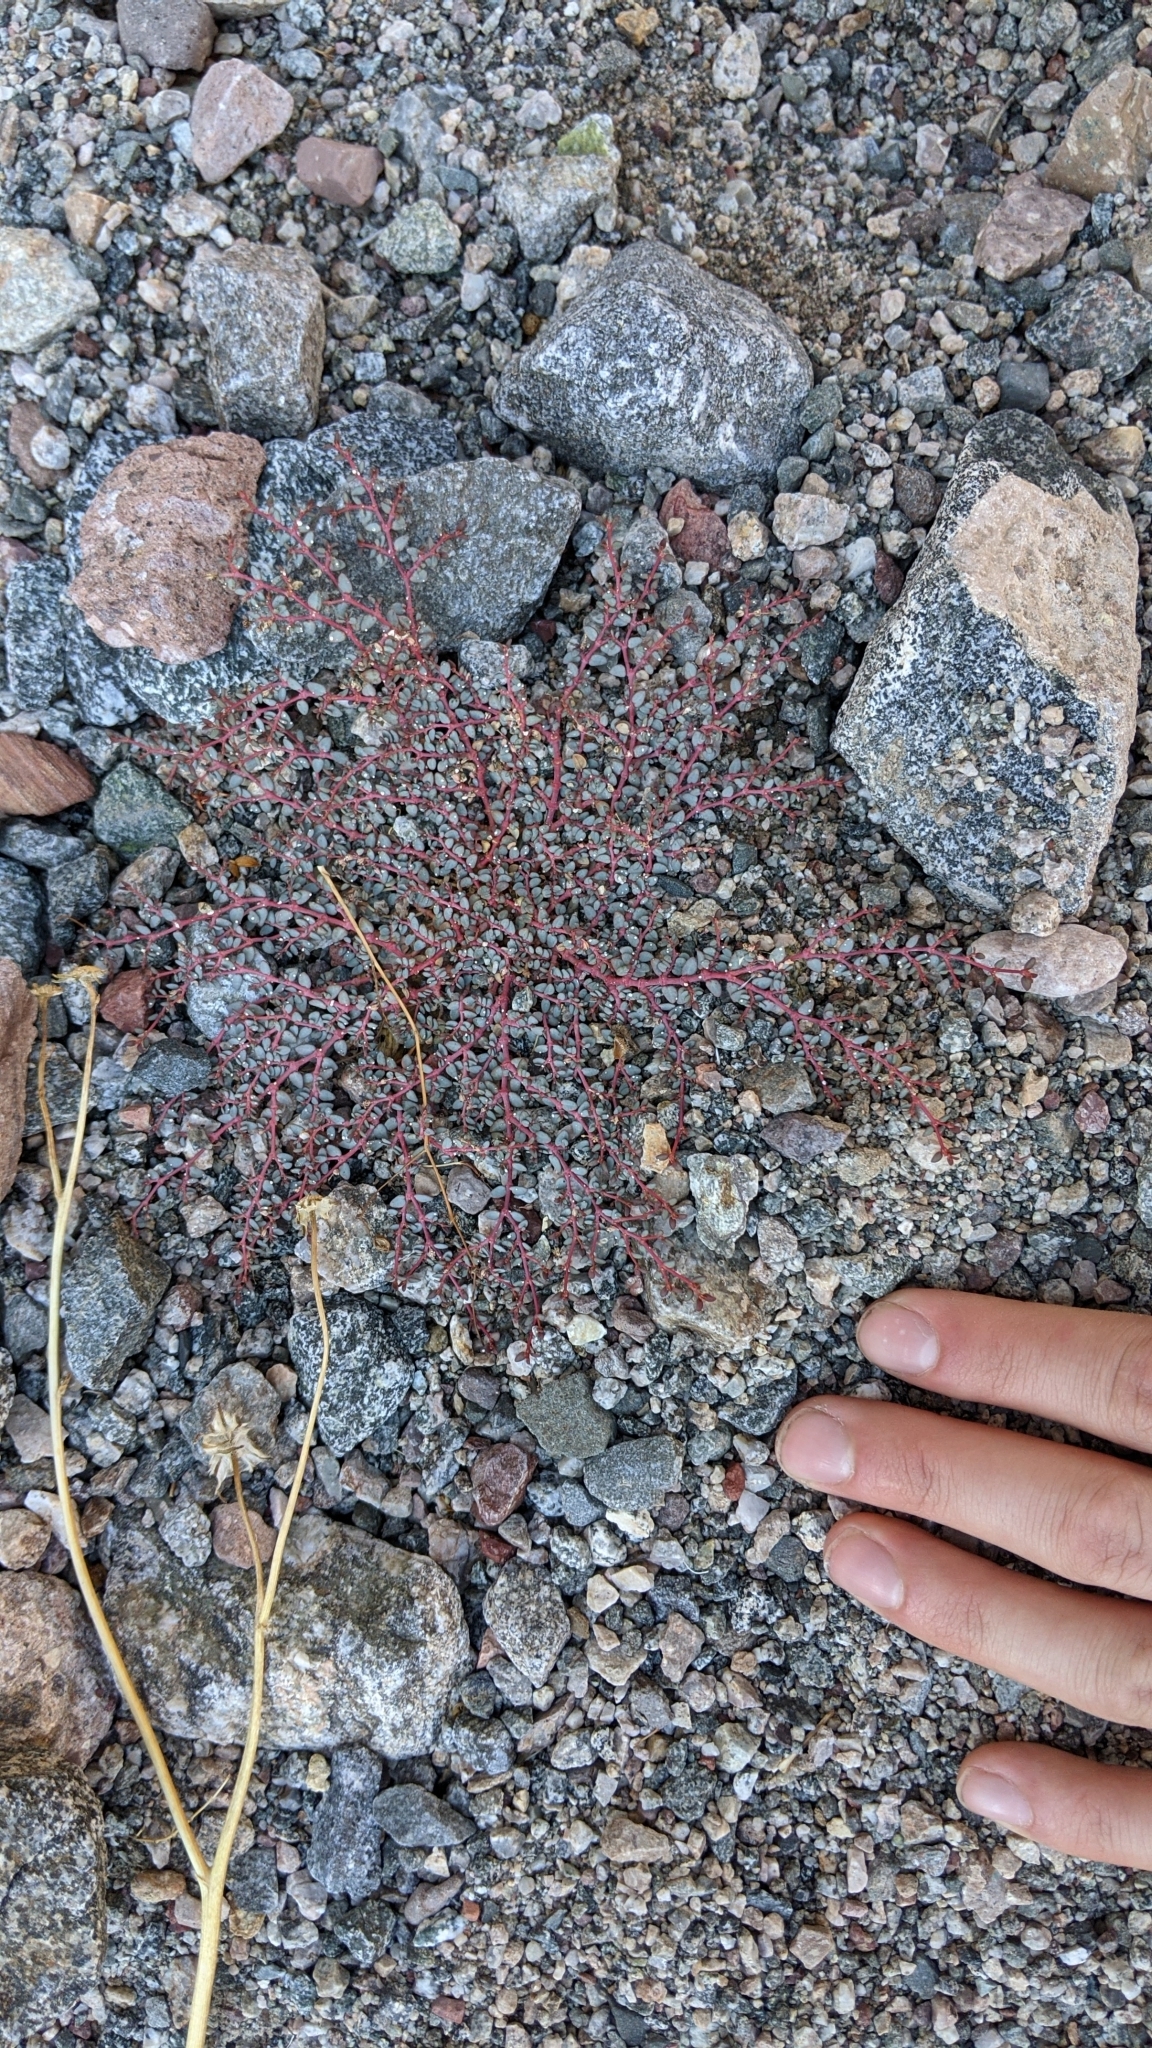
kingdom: Plantae
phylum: Tracheophyta
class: Magnoliopsida
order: Malpighiales
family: Euphorbiaceae
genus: Euphorbia
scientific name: Euphorbia parishii
